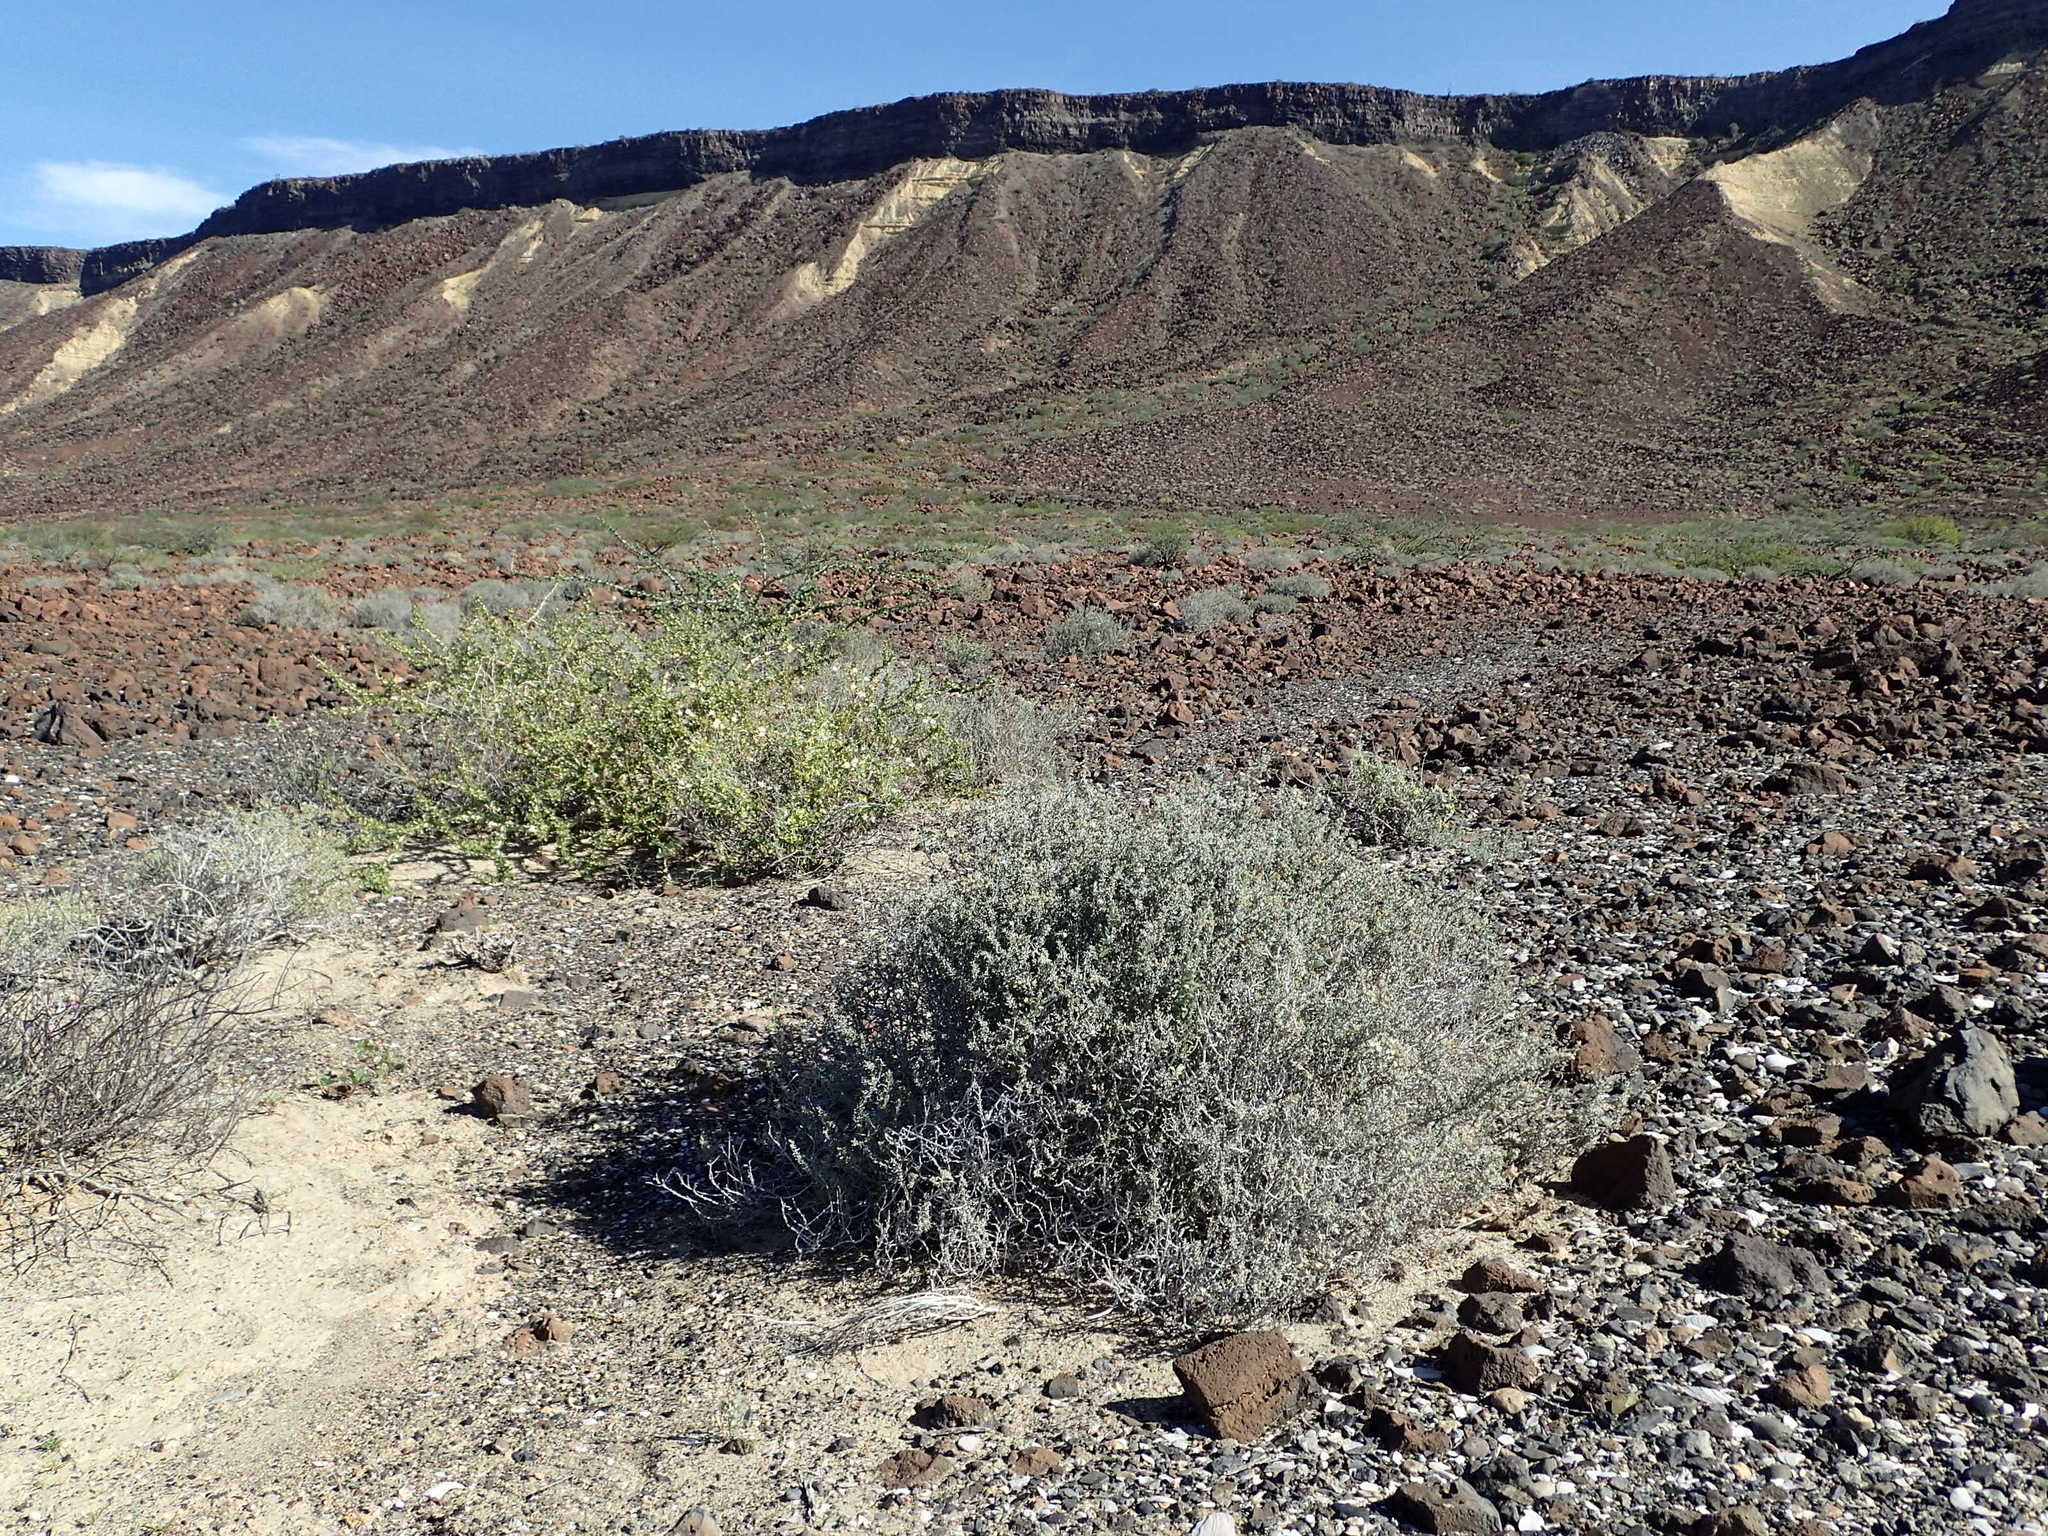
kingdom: Plantae
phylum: Tracheophyta
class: Magnoliopsida
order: Caryophyllales
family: Frankeniaceae
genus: Frankenia
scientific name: Frankenia palmeri
